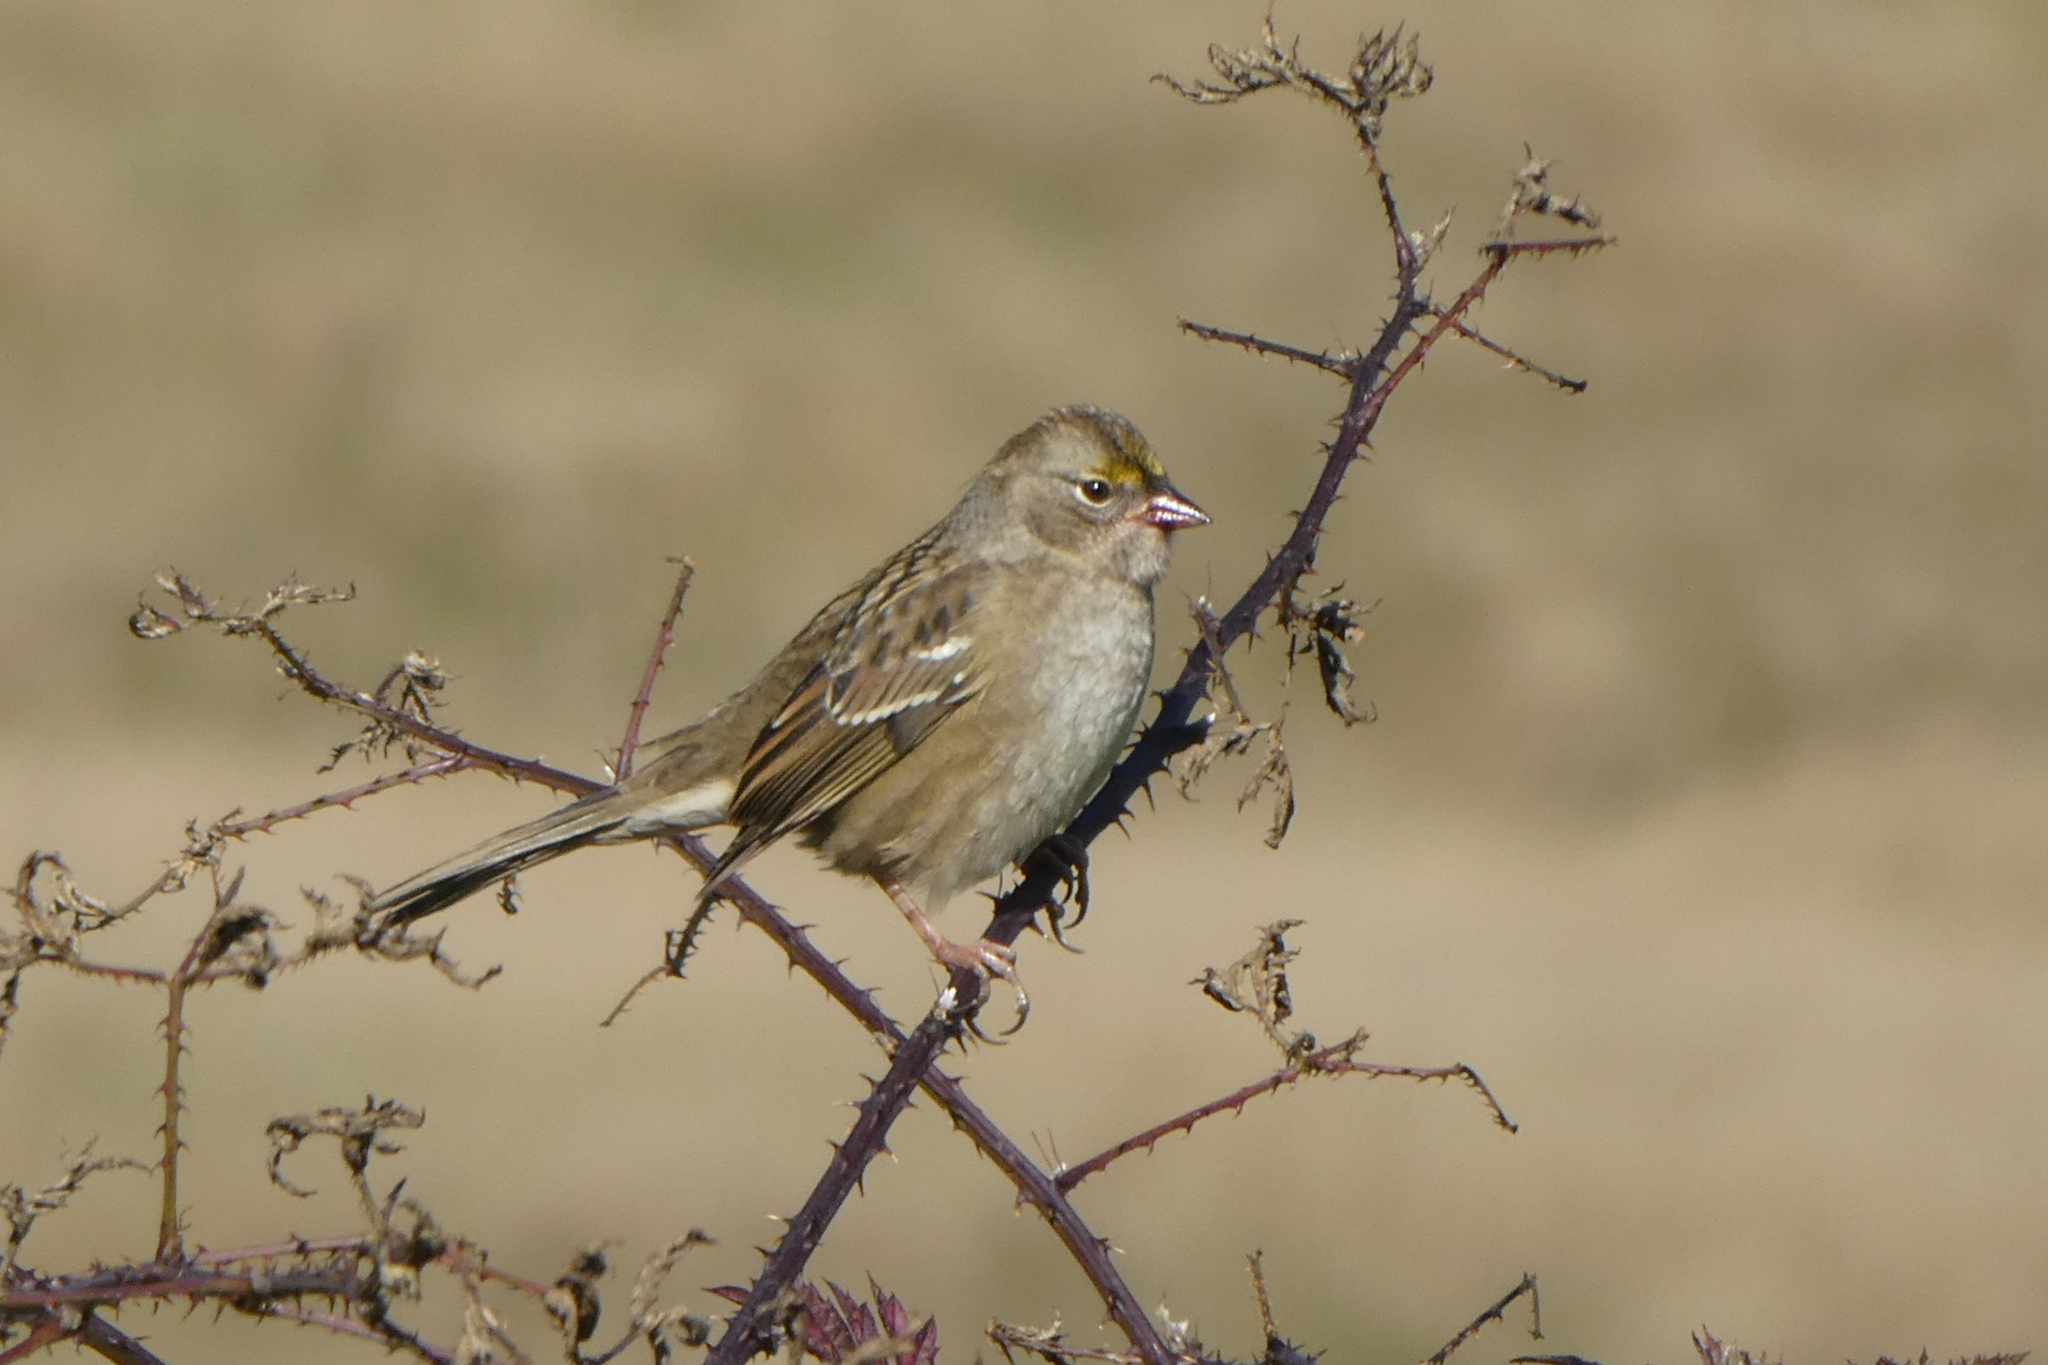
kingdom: Animalia
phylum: Chordata
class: Aves
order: Passeriformes
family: Passerellidae
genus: Zonotrichia
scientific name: Zonotrichia atricapilla
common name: Golden-crowned sparrow
